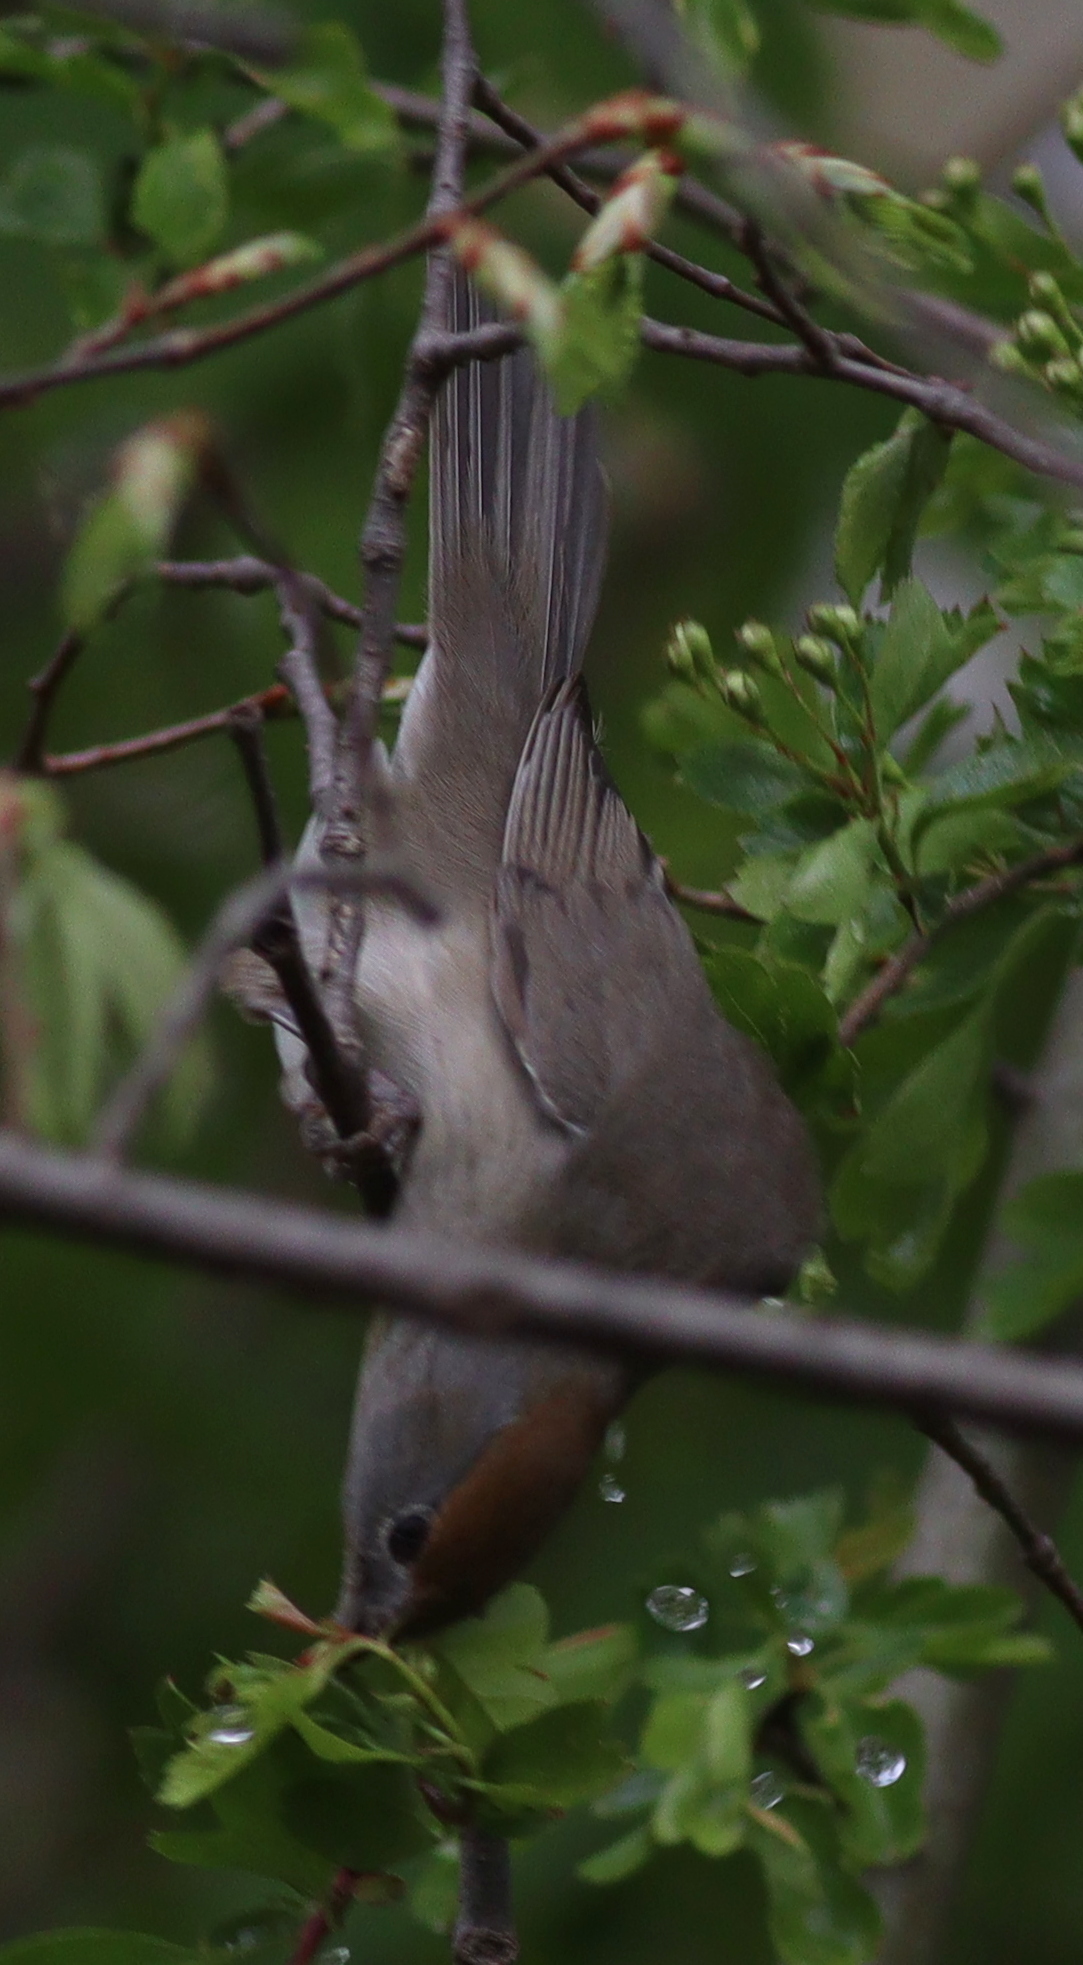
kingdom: Animalia
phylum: Chordata
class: Aves
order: Passeriformes
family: Sylviidae
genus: Sylvia
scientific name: Sylvia atricapilla
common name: Eurasian blackcap
